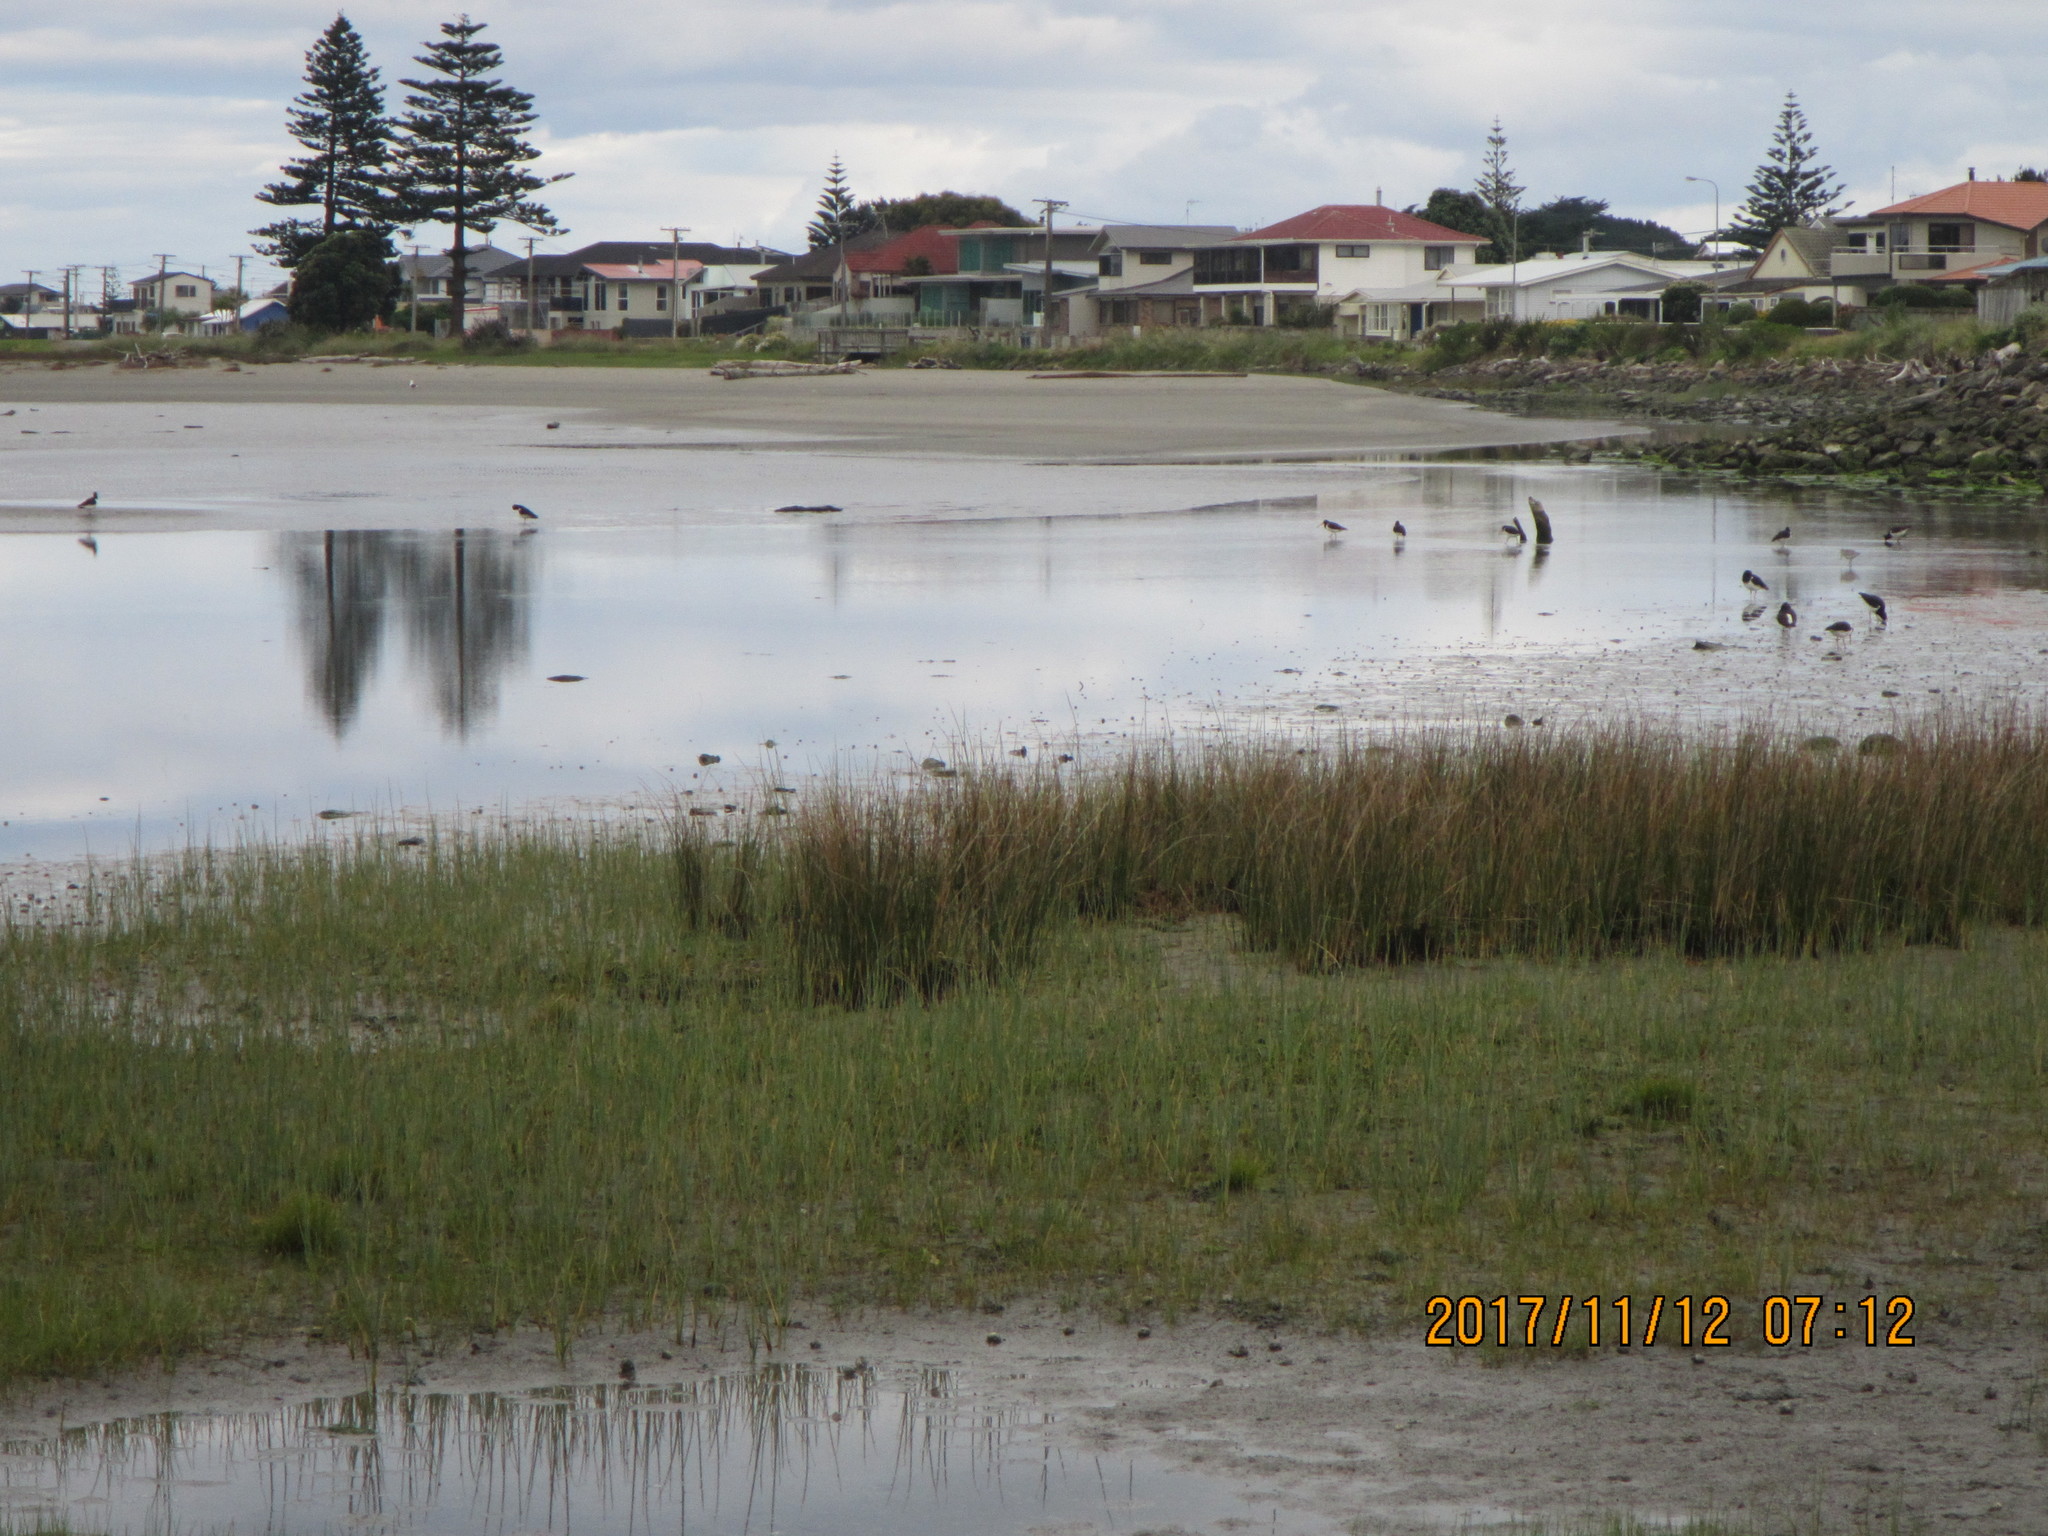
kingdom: Animalia
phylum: Chordata
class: Aves
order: Charadriiformes
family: Haematopodidae
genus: Haematopus
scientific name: Haematopus finschi
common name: South island oystercatcher
